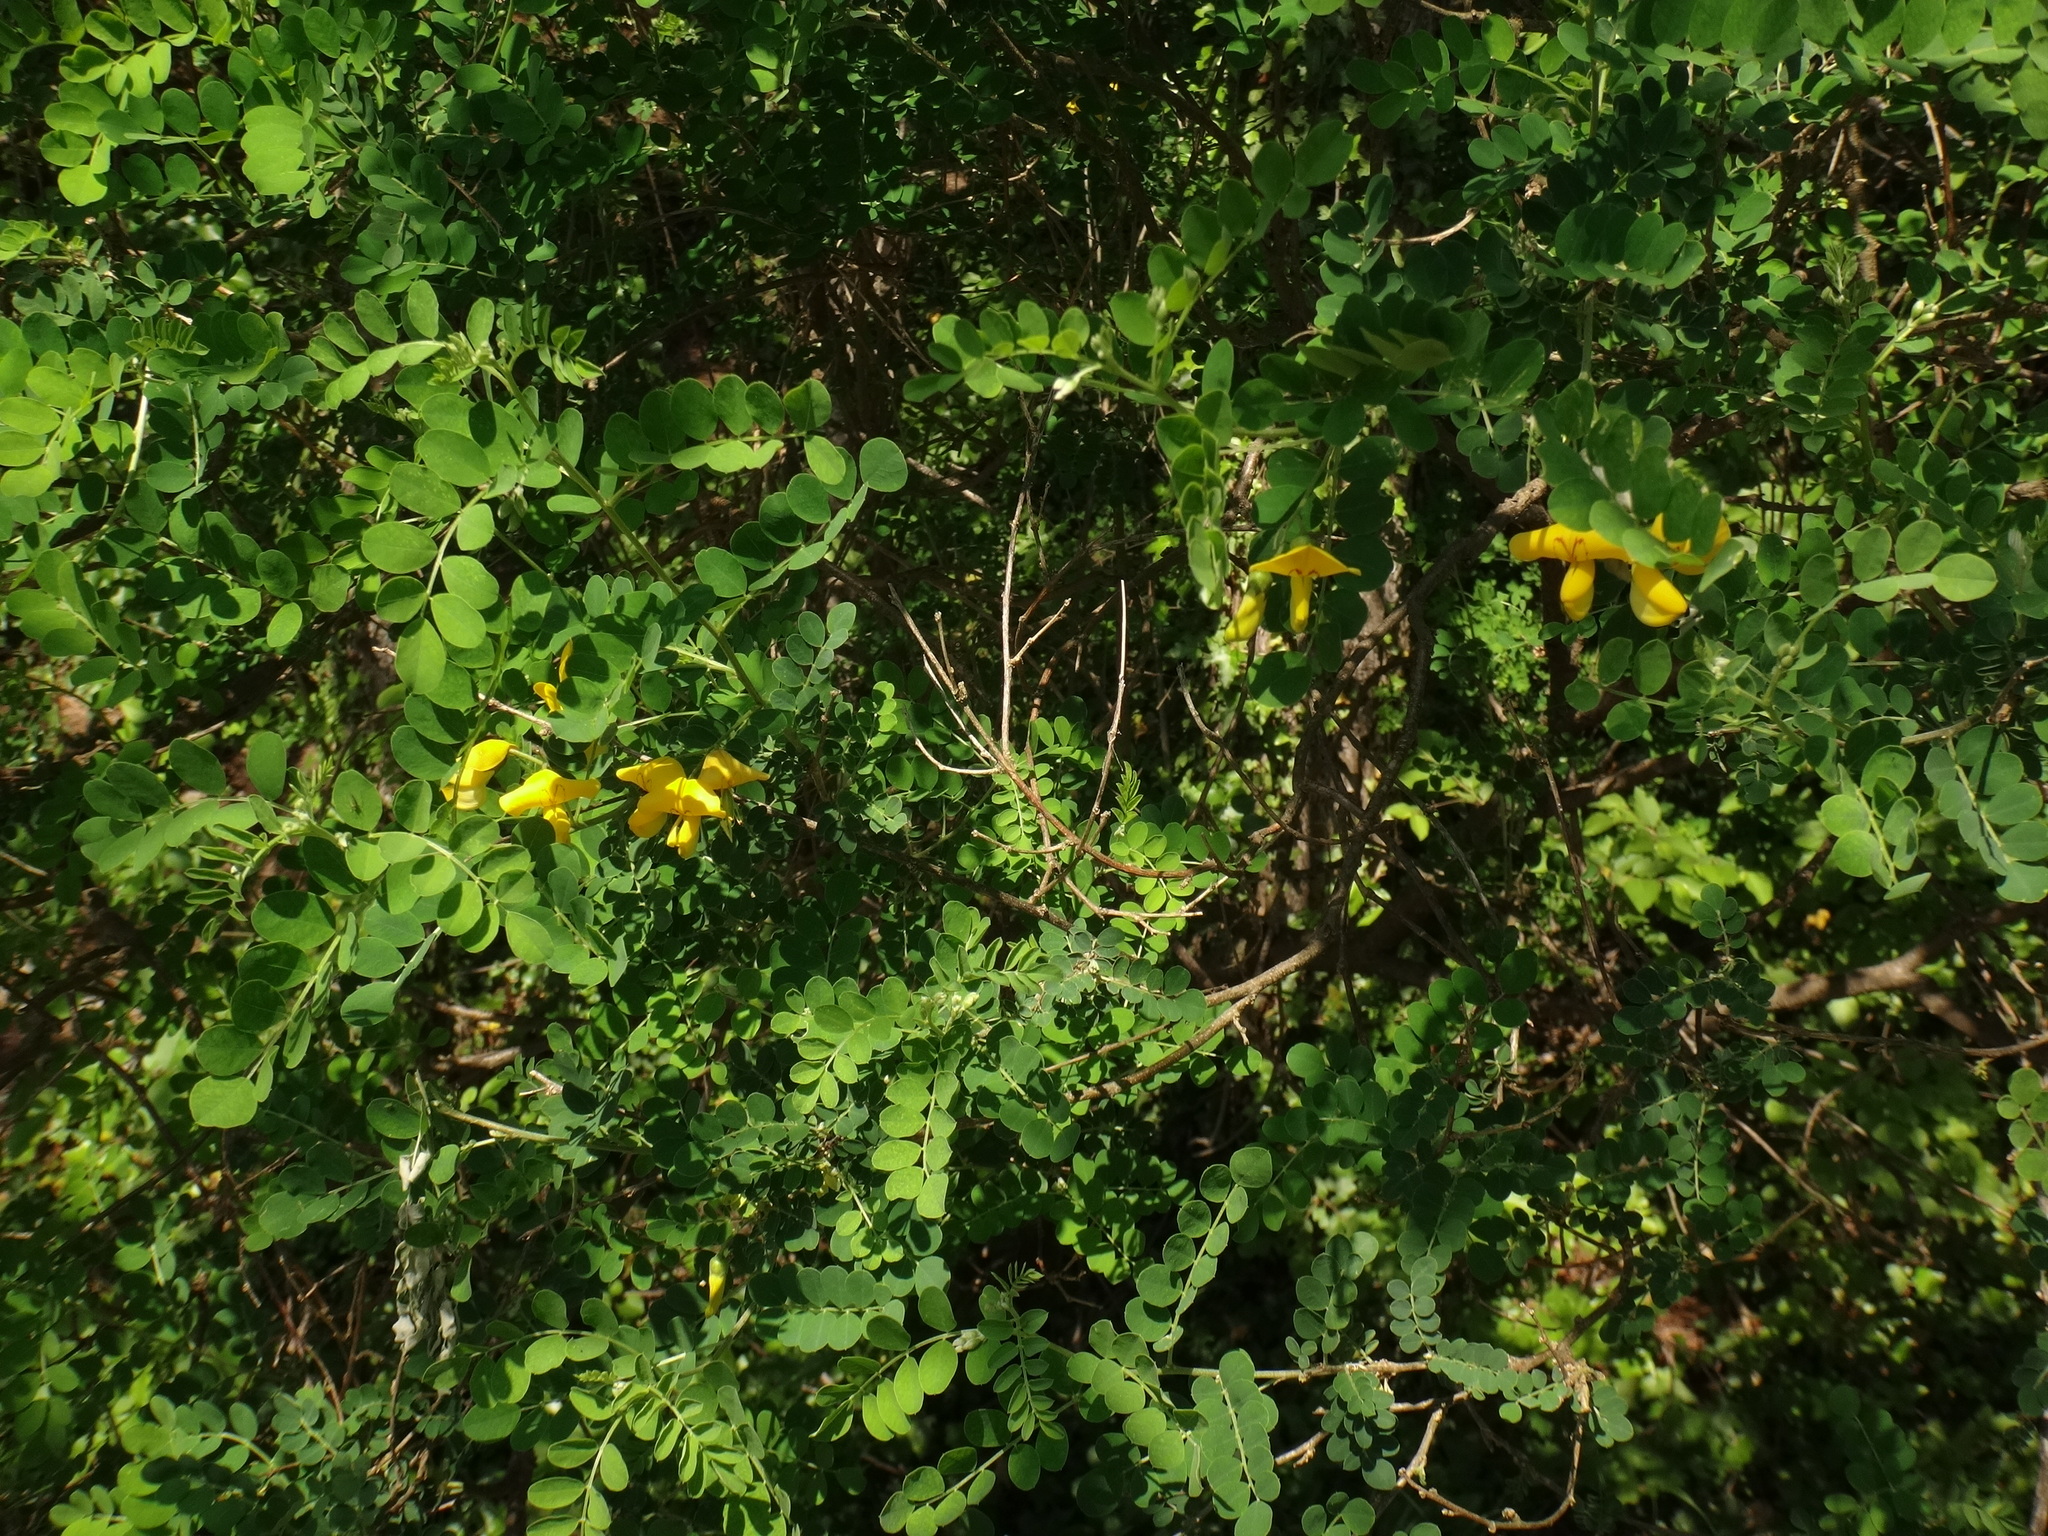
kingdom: Plantae
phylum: Tracheophyta
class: Magnoliopsida
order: Fabales
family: Fabaceae
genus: Colutea
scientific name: Colutea arborescens
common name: Bladder-senna
